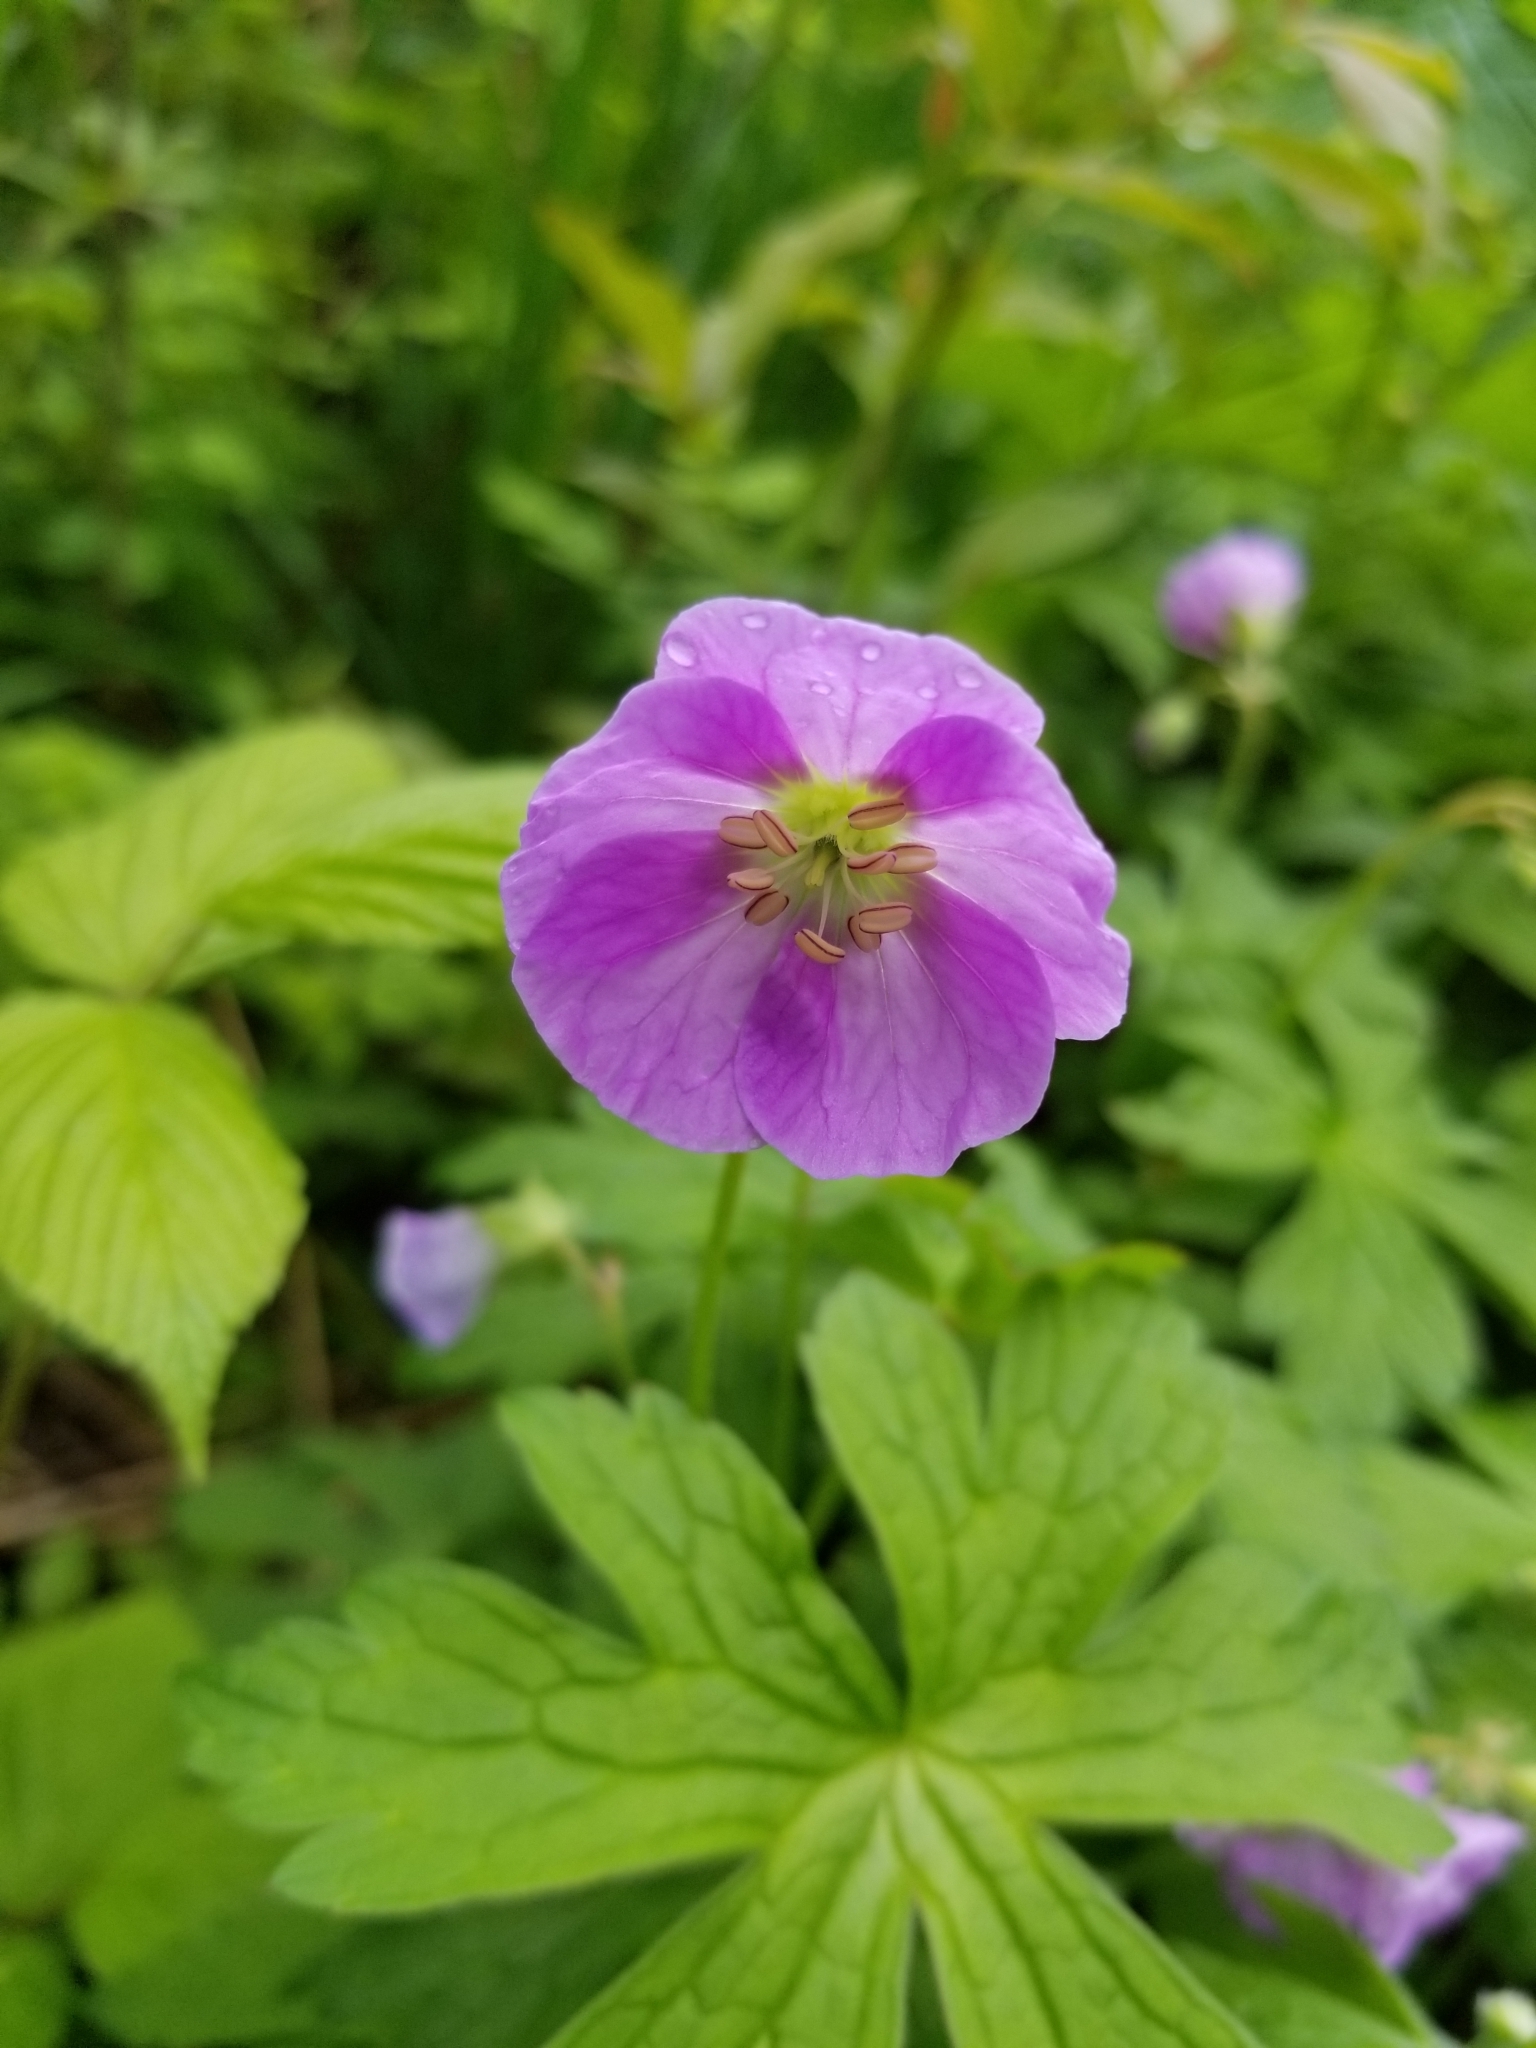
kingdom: Plantae
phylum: Tracheophyta
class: Magnoliopsida
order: Geraniales
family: Geraniaceae
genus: Geranium
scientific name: Geranium maculatum
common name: Spotted geranium
